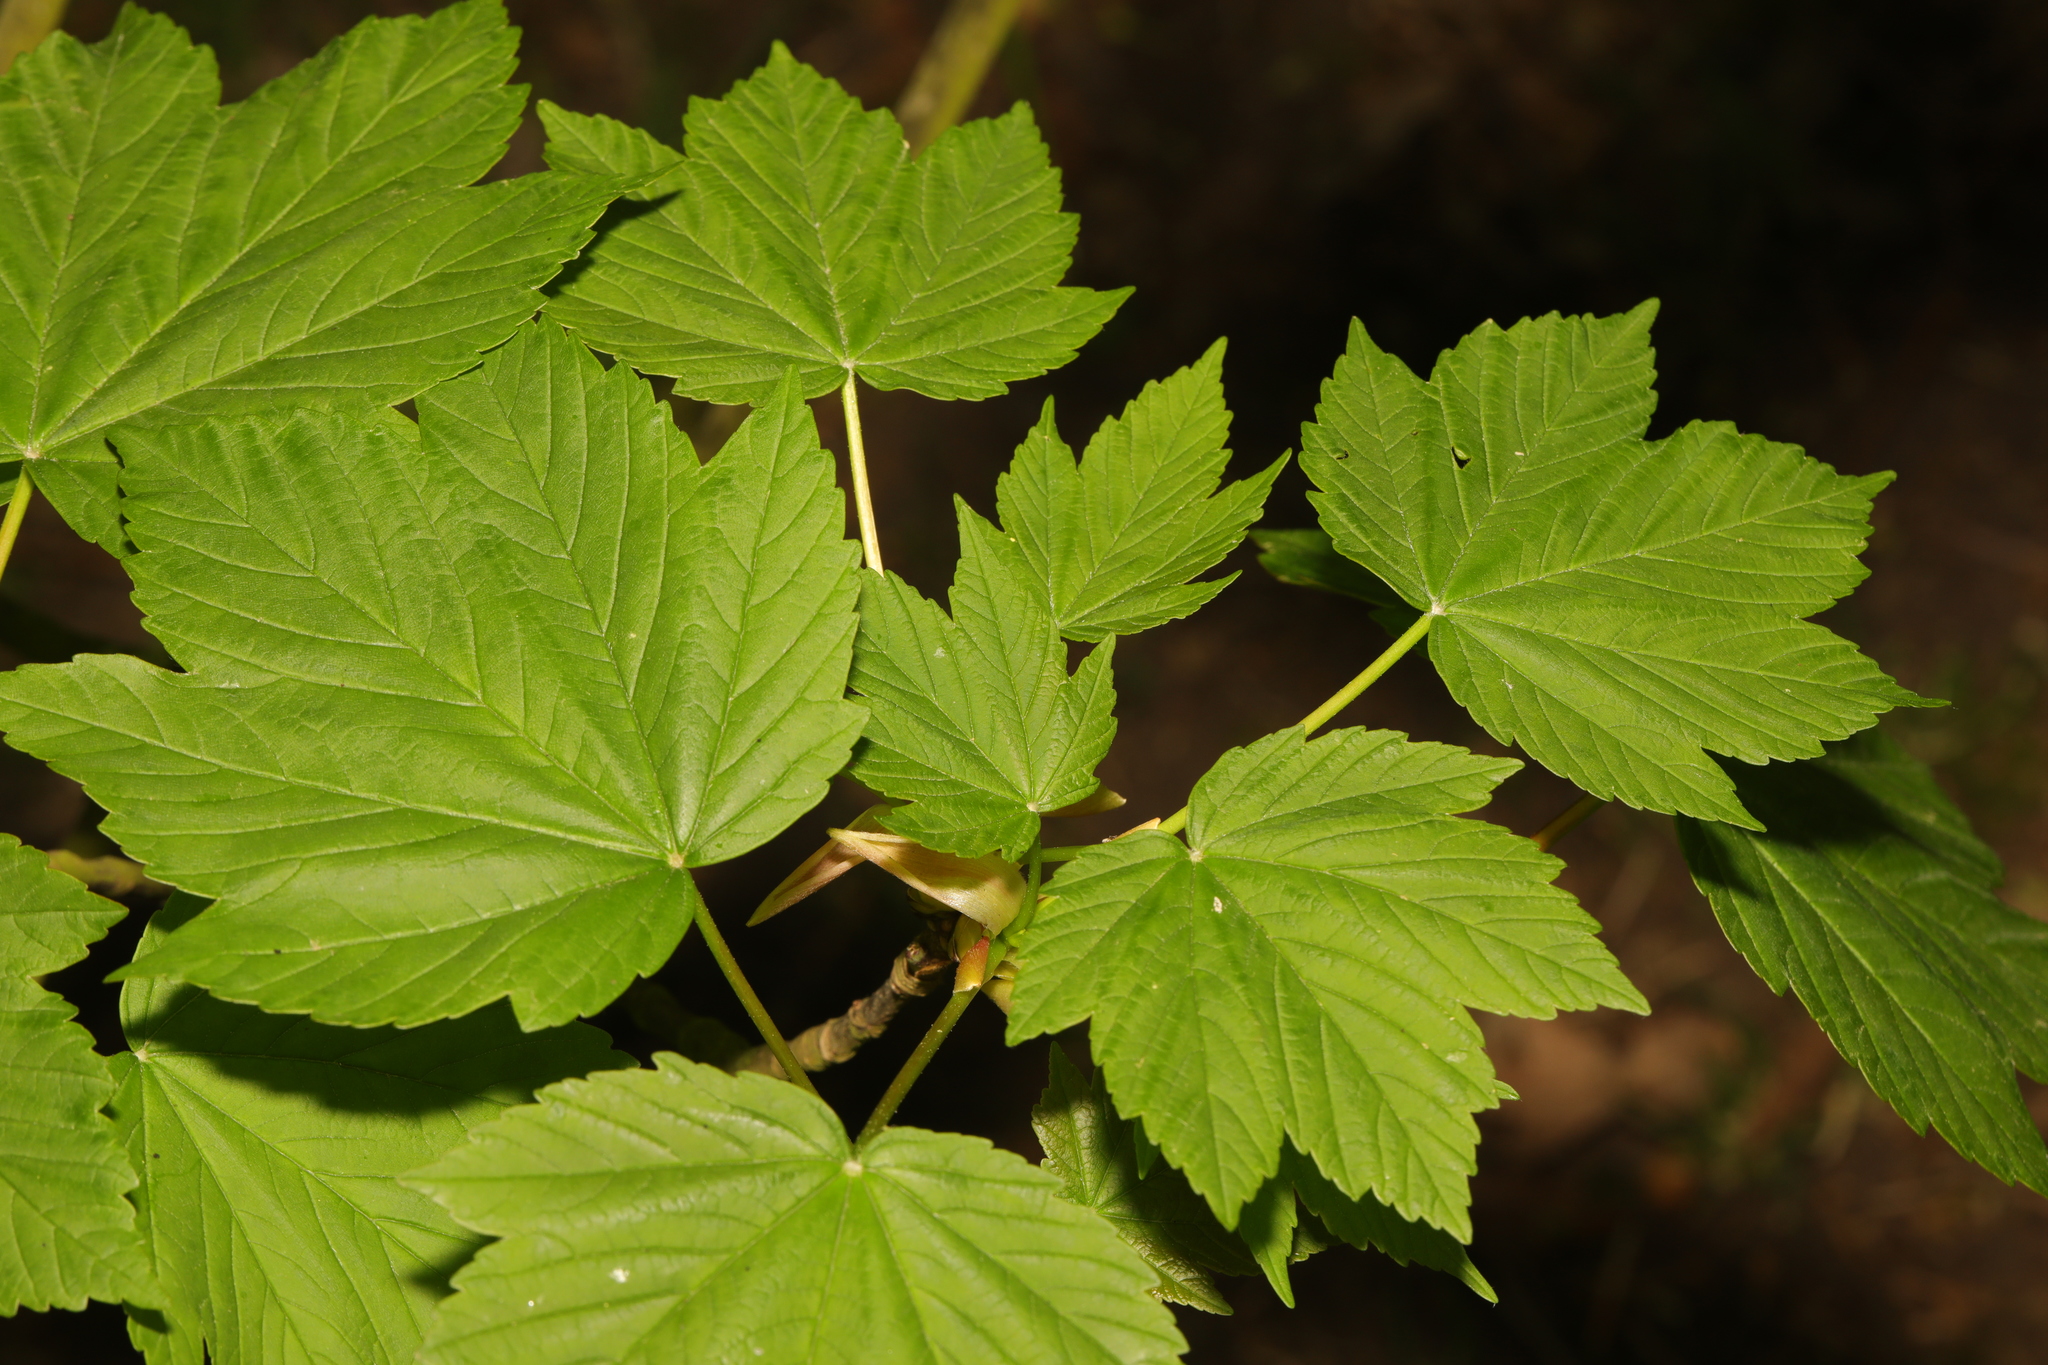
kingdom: Plantae
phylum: Tracheophyta
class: Magnoliopsida
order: Sapindales
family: Sapindaceae
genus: Acer
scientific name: Acer pseudoplatanus
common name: Sycamore
